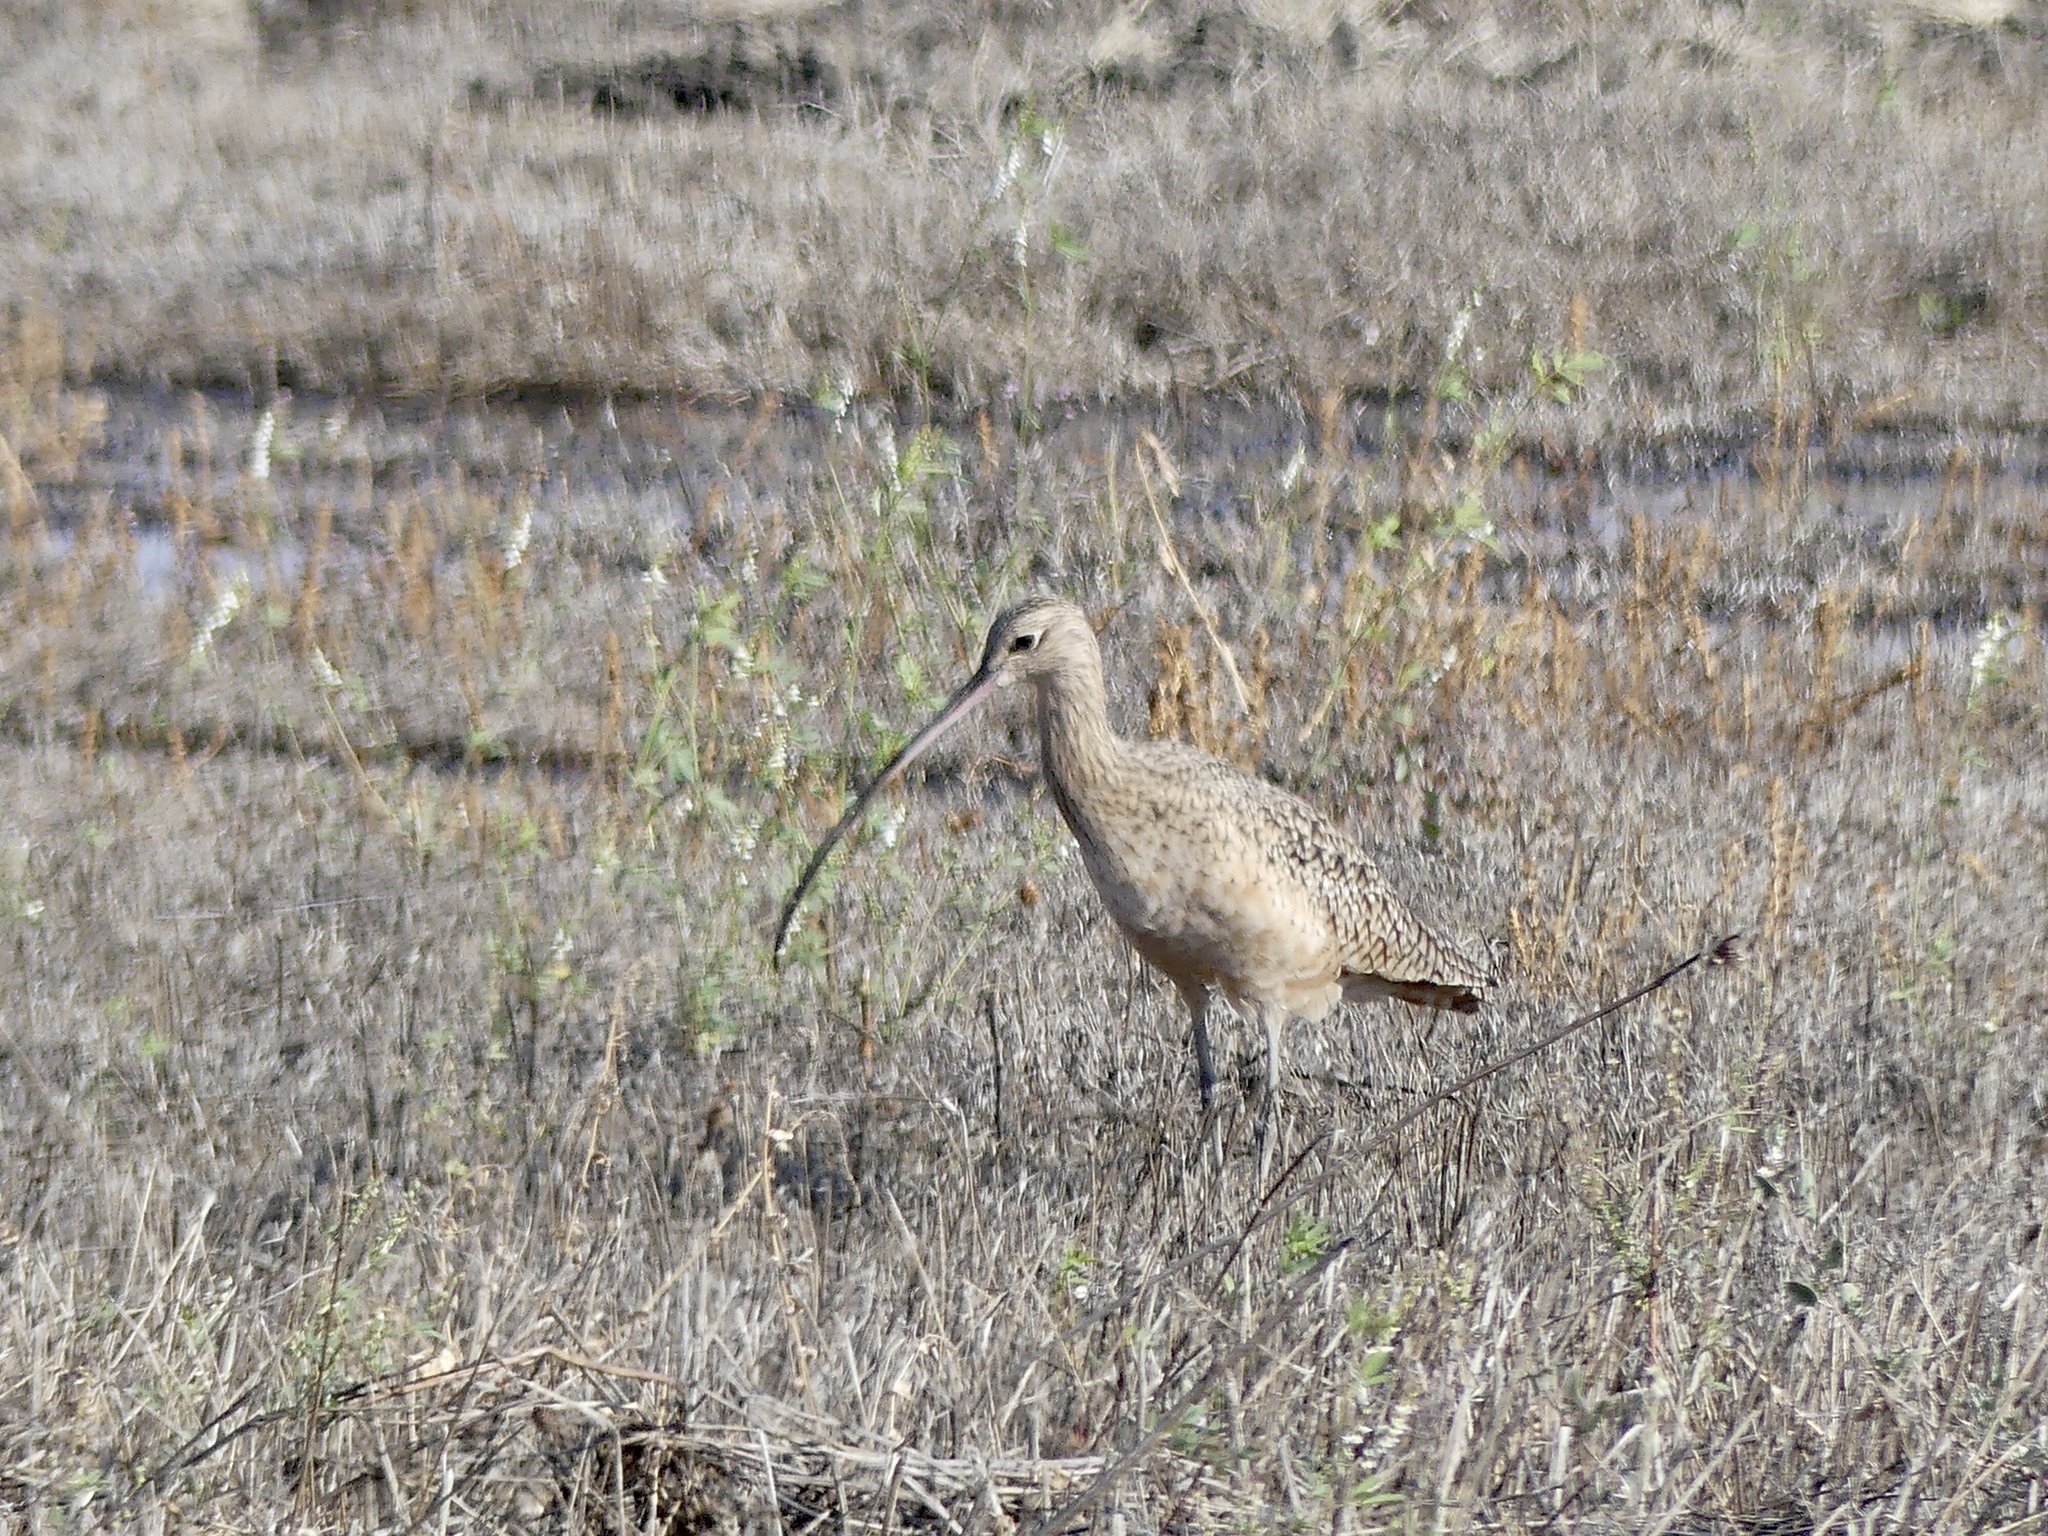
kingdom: Animalia
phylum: Chordata
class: Aves
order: Charadriiformes
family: Scolopacidae
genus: Numenius
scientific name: Numenius americanus
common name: Long-billed curlew
